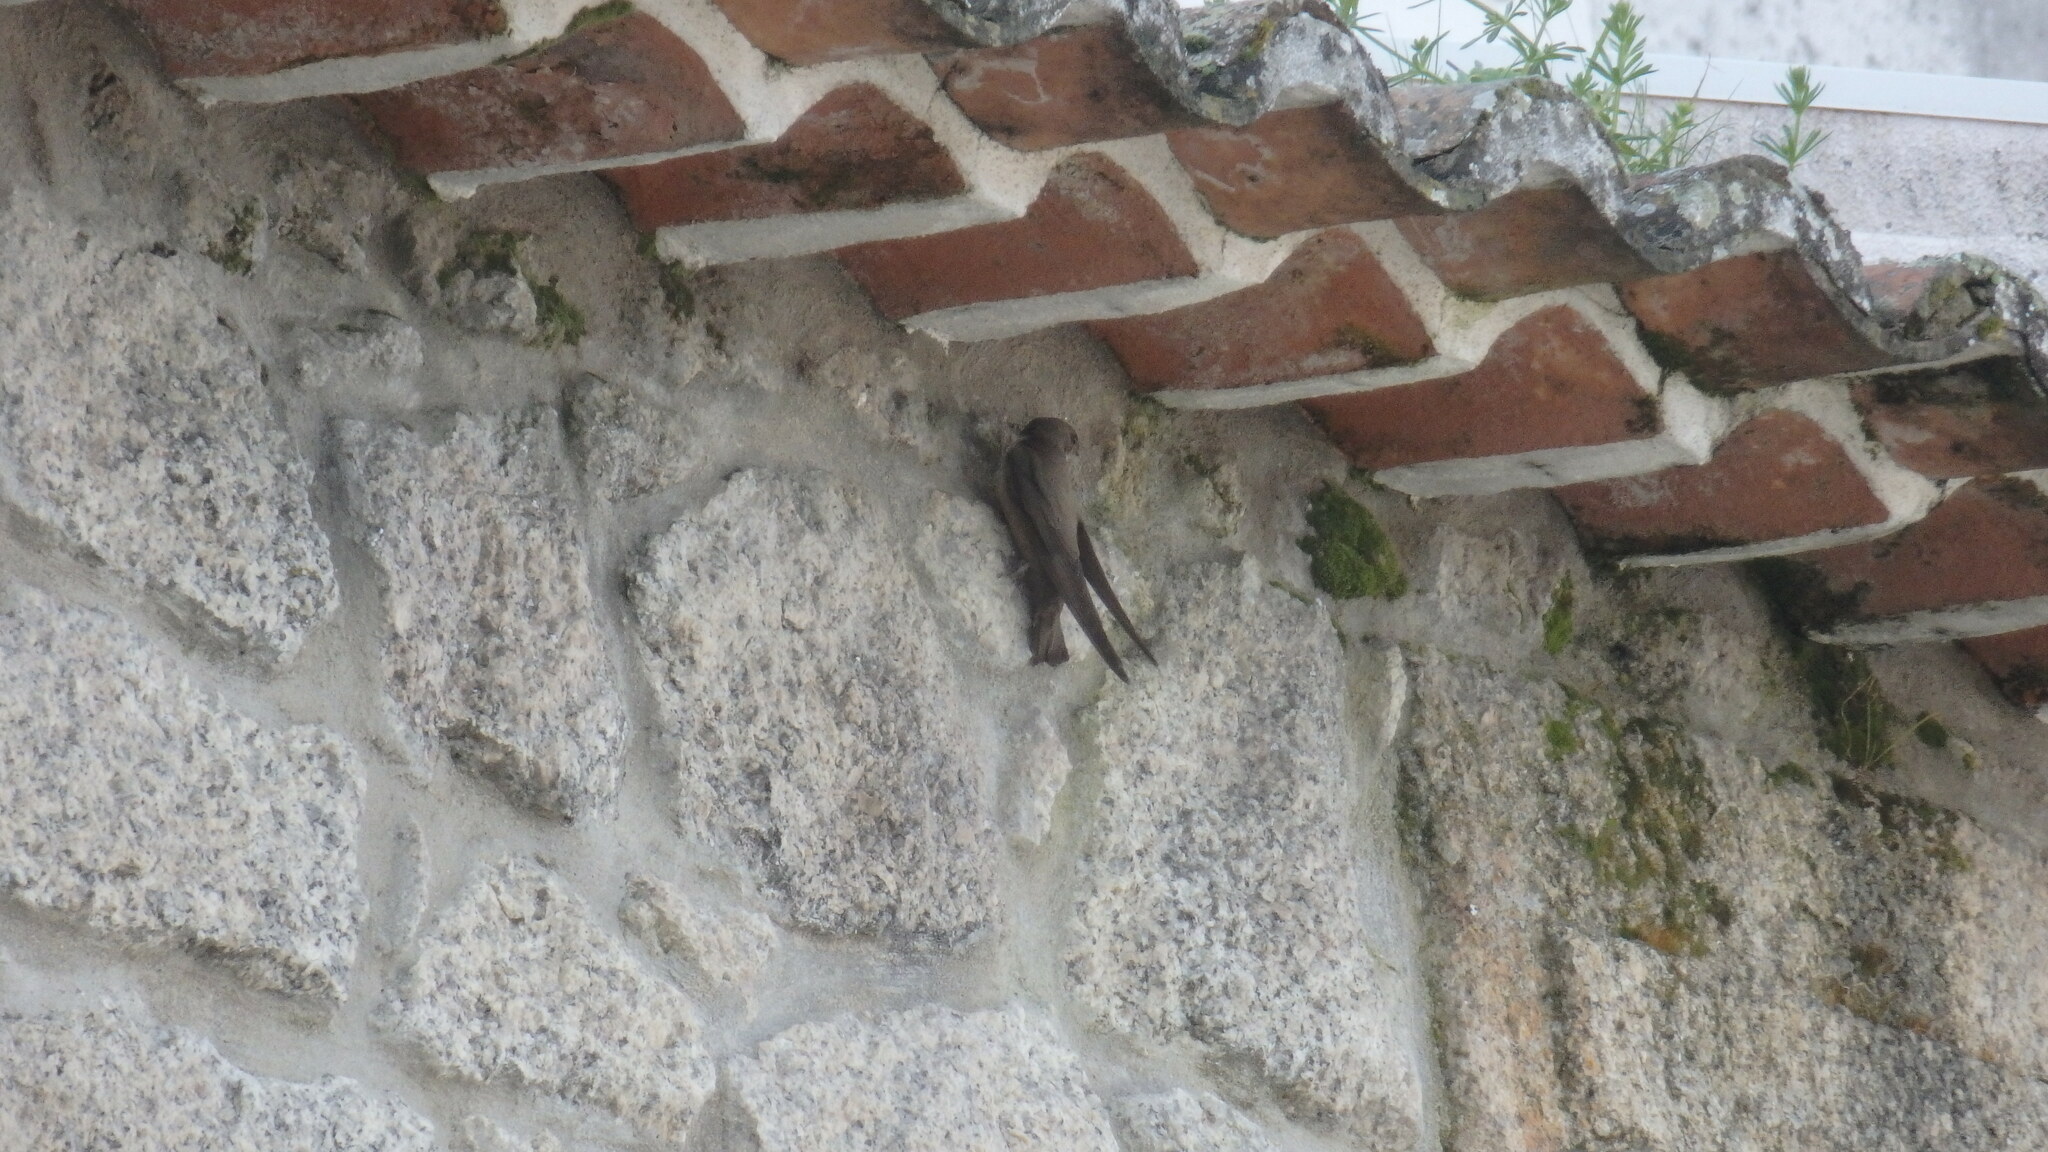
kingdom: Animalia
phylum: Chordata
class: Aves
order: Passeriformes
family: Hirundinidae
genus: Ptyonoprogne
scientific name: Ptyonoprogne rupestris
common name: Eurasian crag martin
